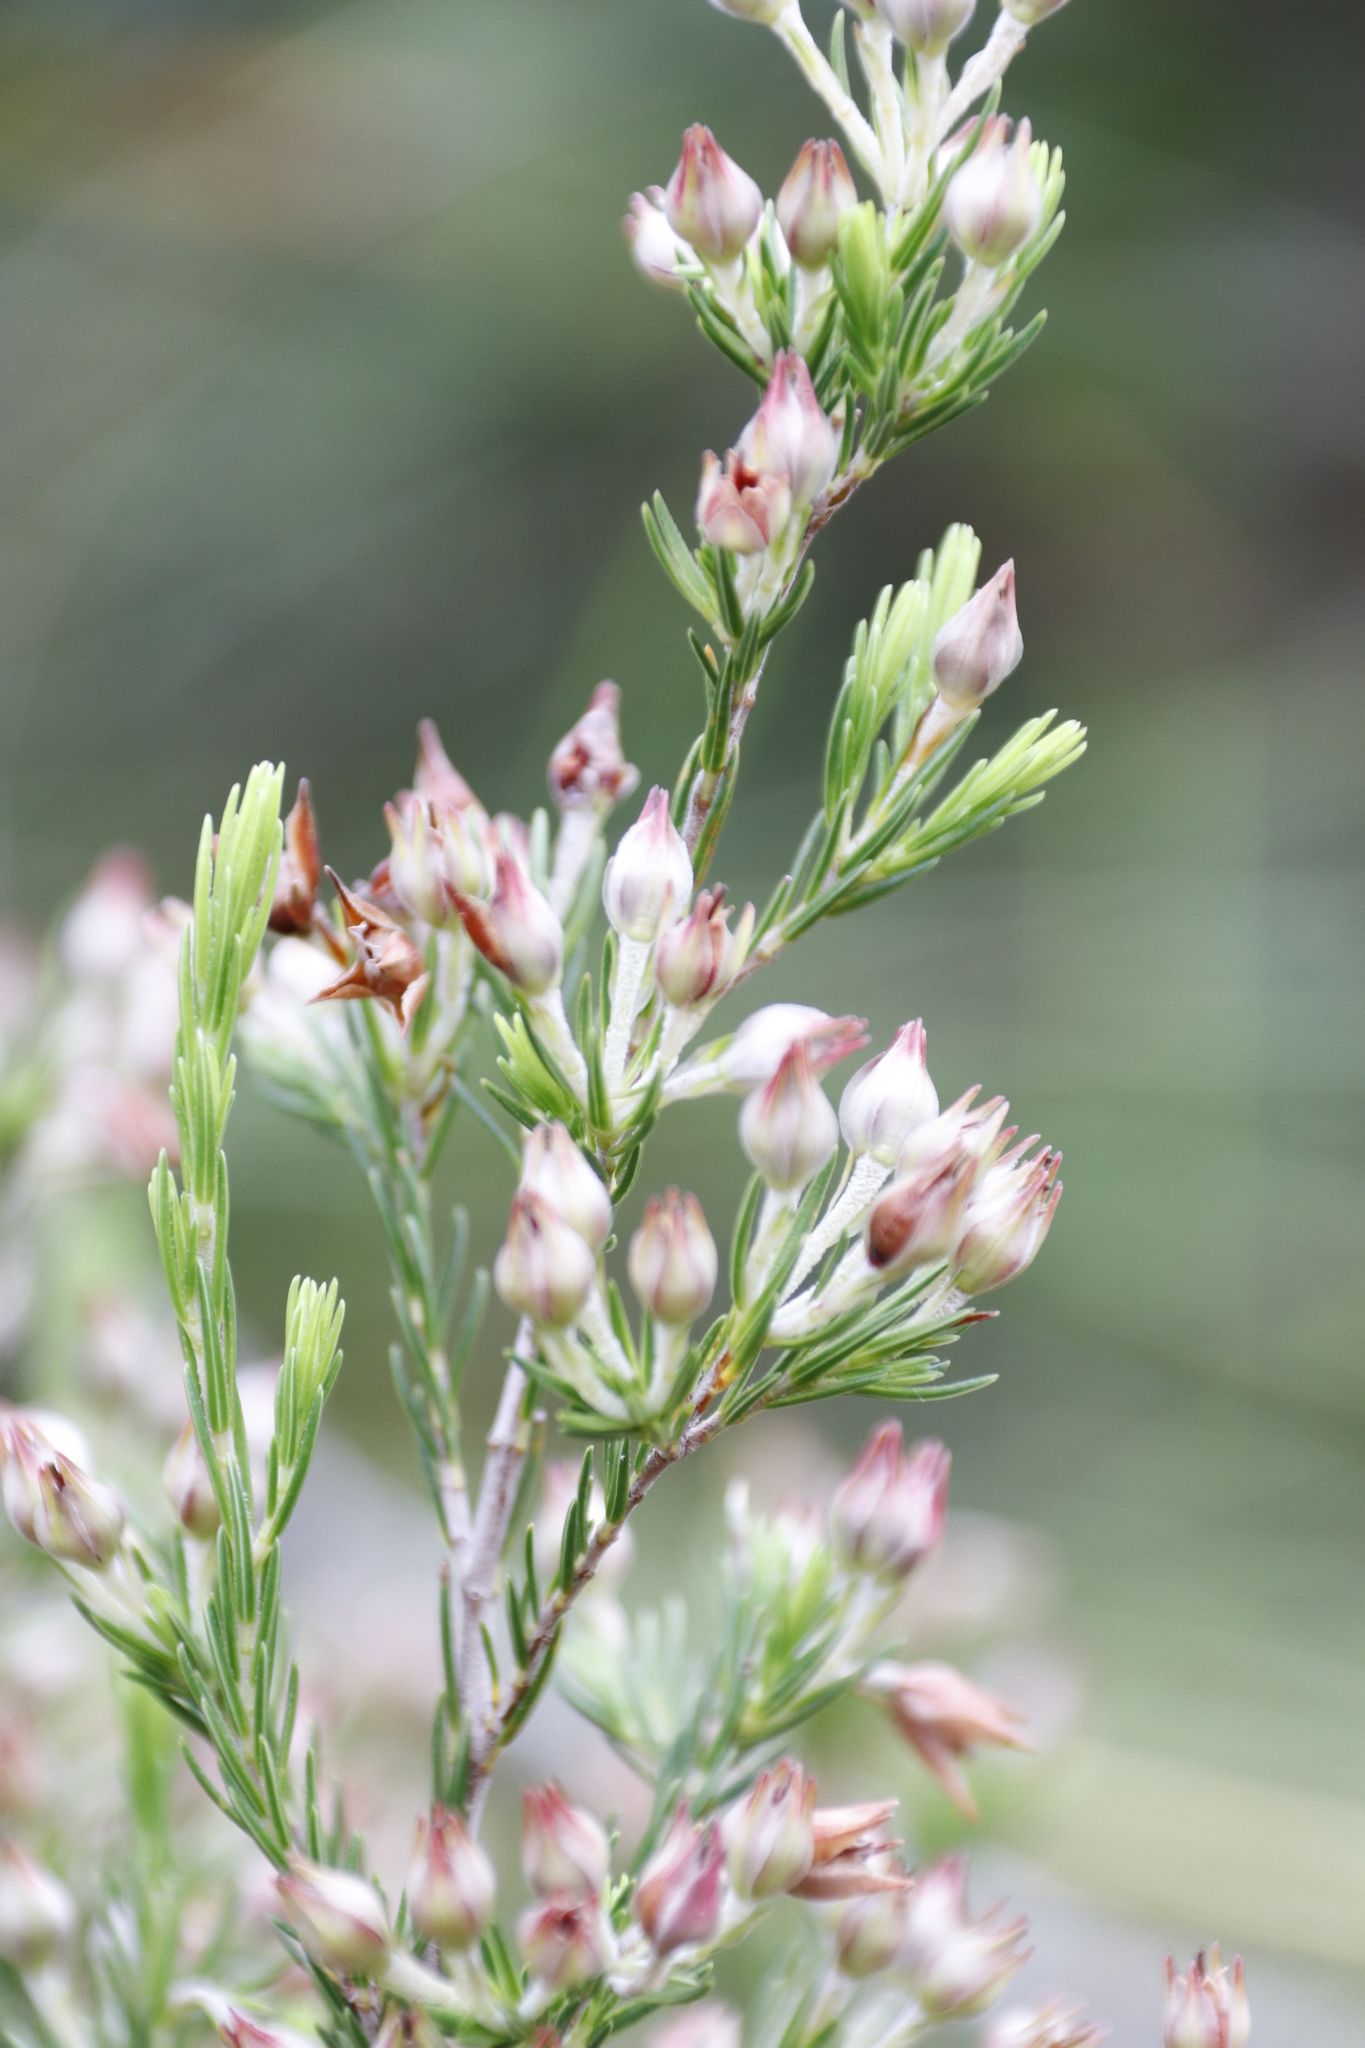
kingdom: Plantae
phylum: Tracheophyta
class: Magnoliopsida
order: Ericales
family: Ericaceae
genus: Erica
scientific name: Erica caffrorum
